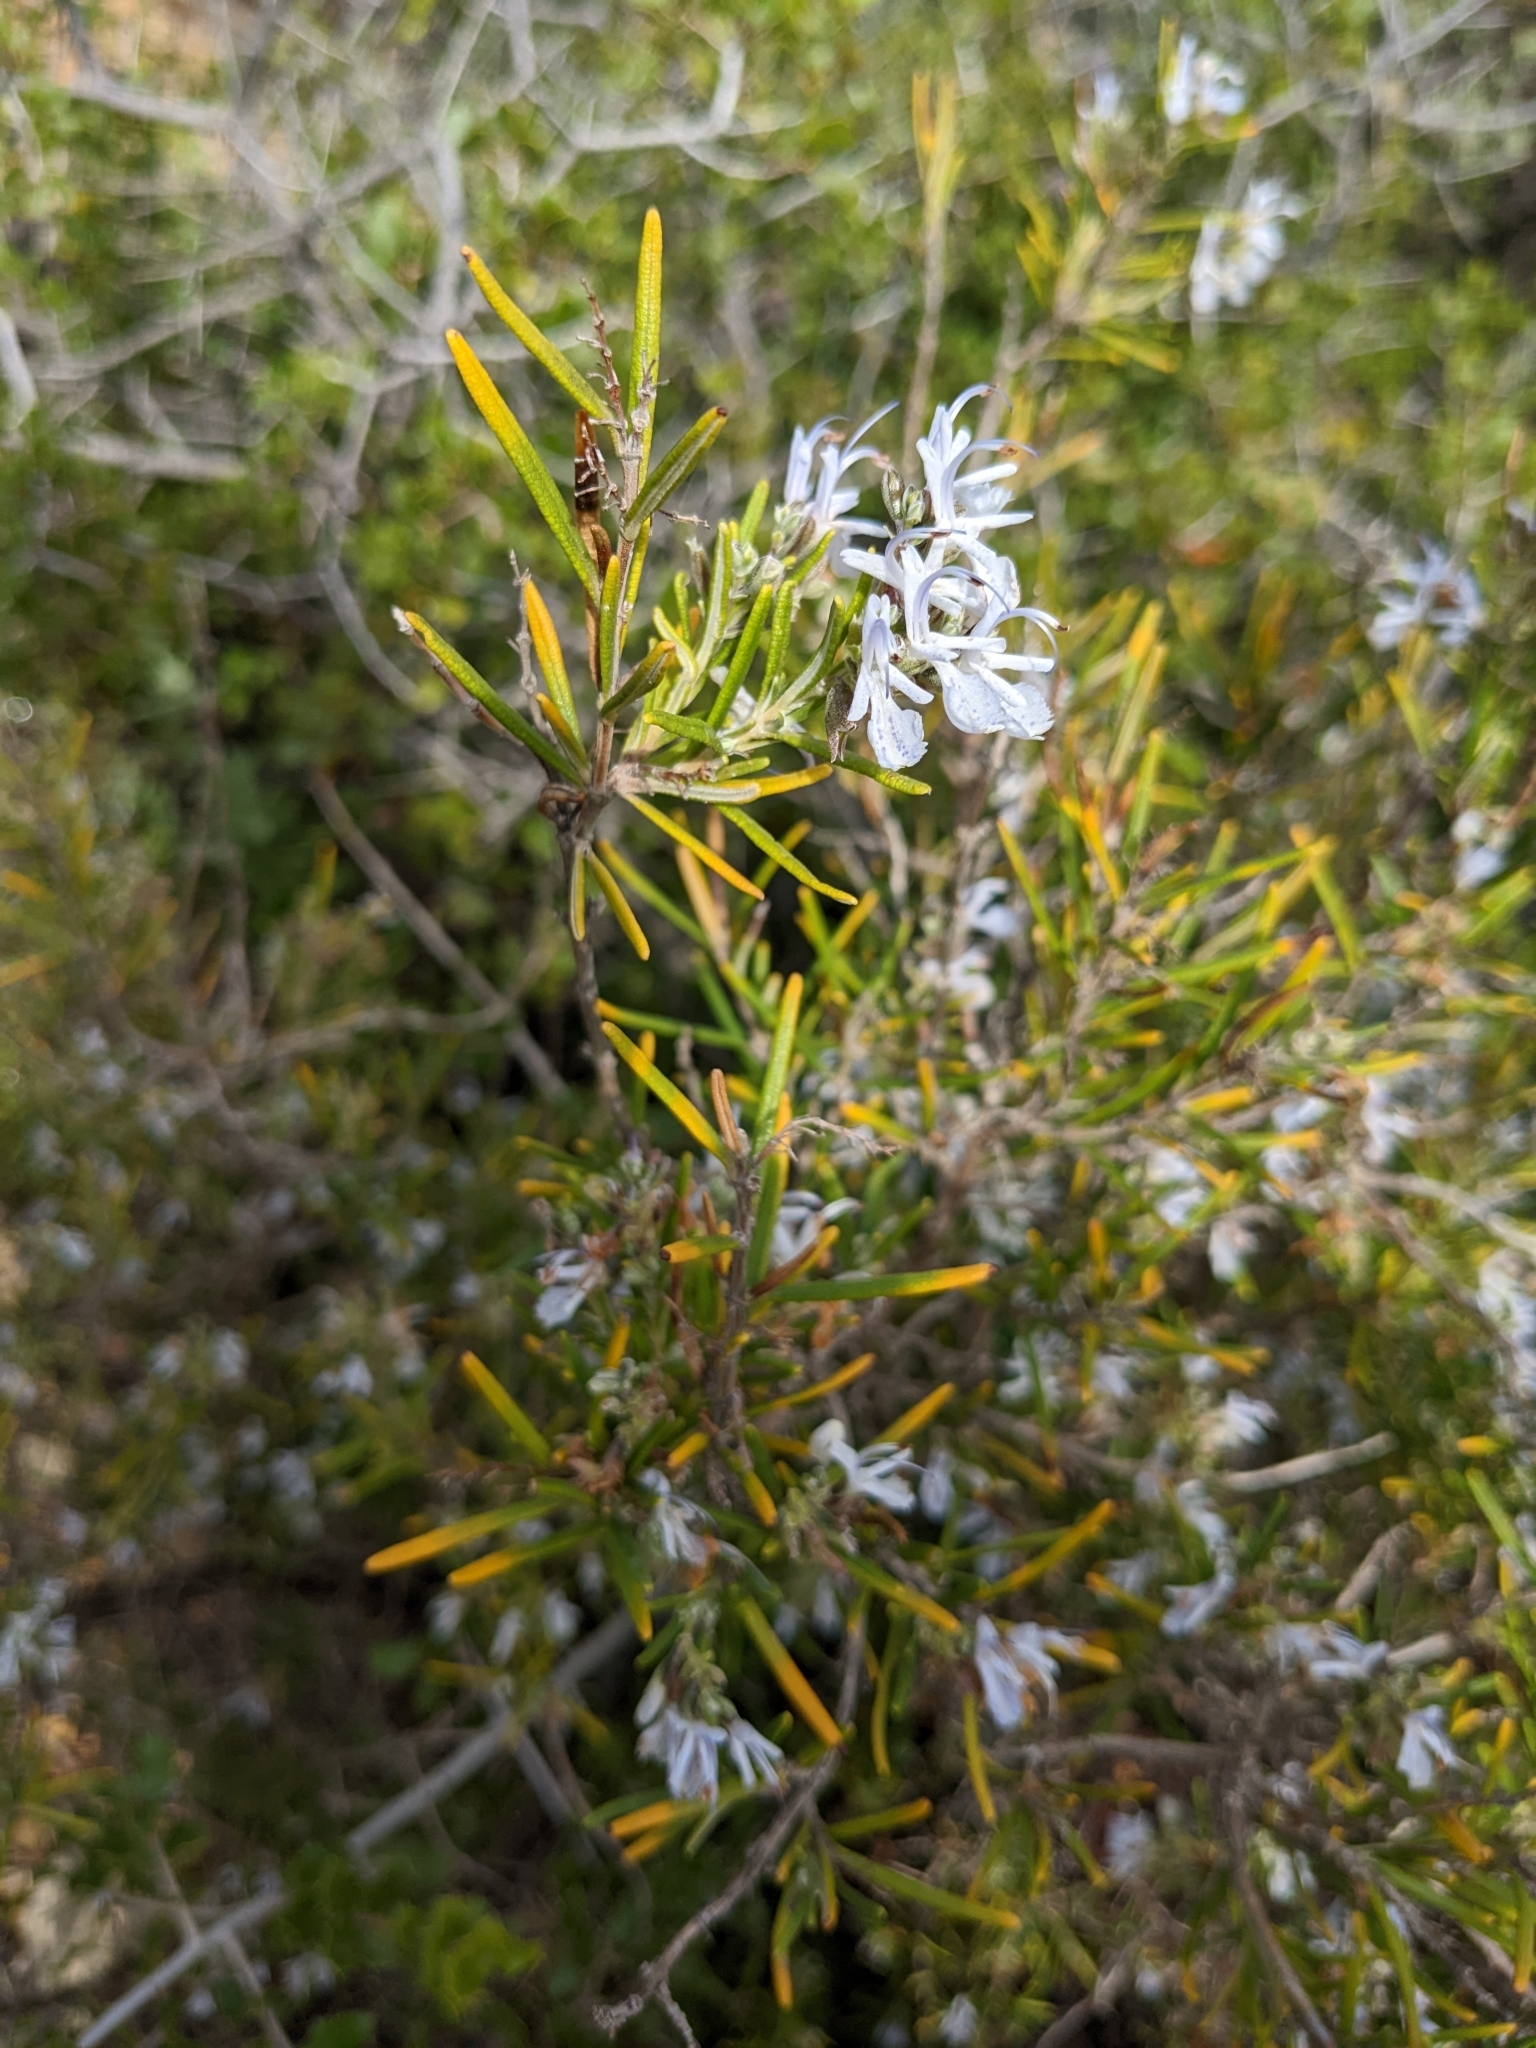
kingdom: Plantae
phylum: Tracheophyta
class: Magnoliopsida
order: Lamiales
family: Lamiaceae
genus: Salvia
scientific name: Salvia rosmarinus
